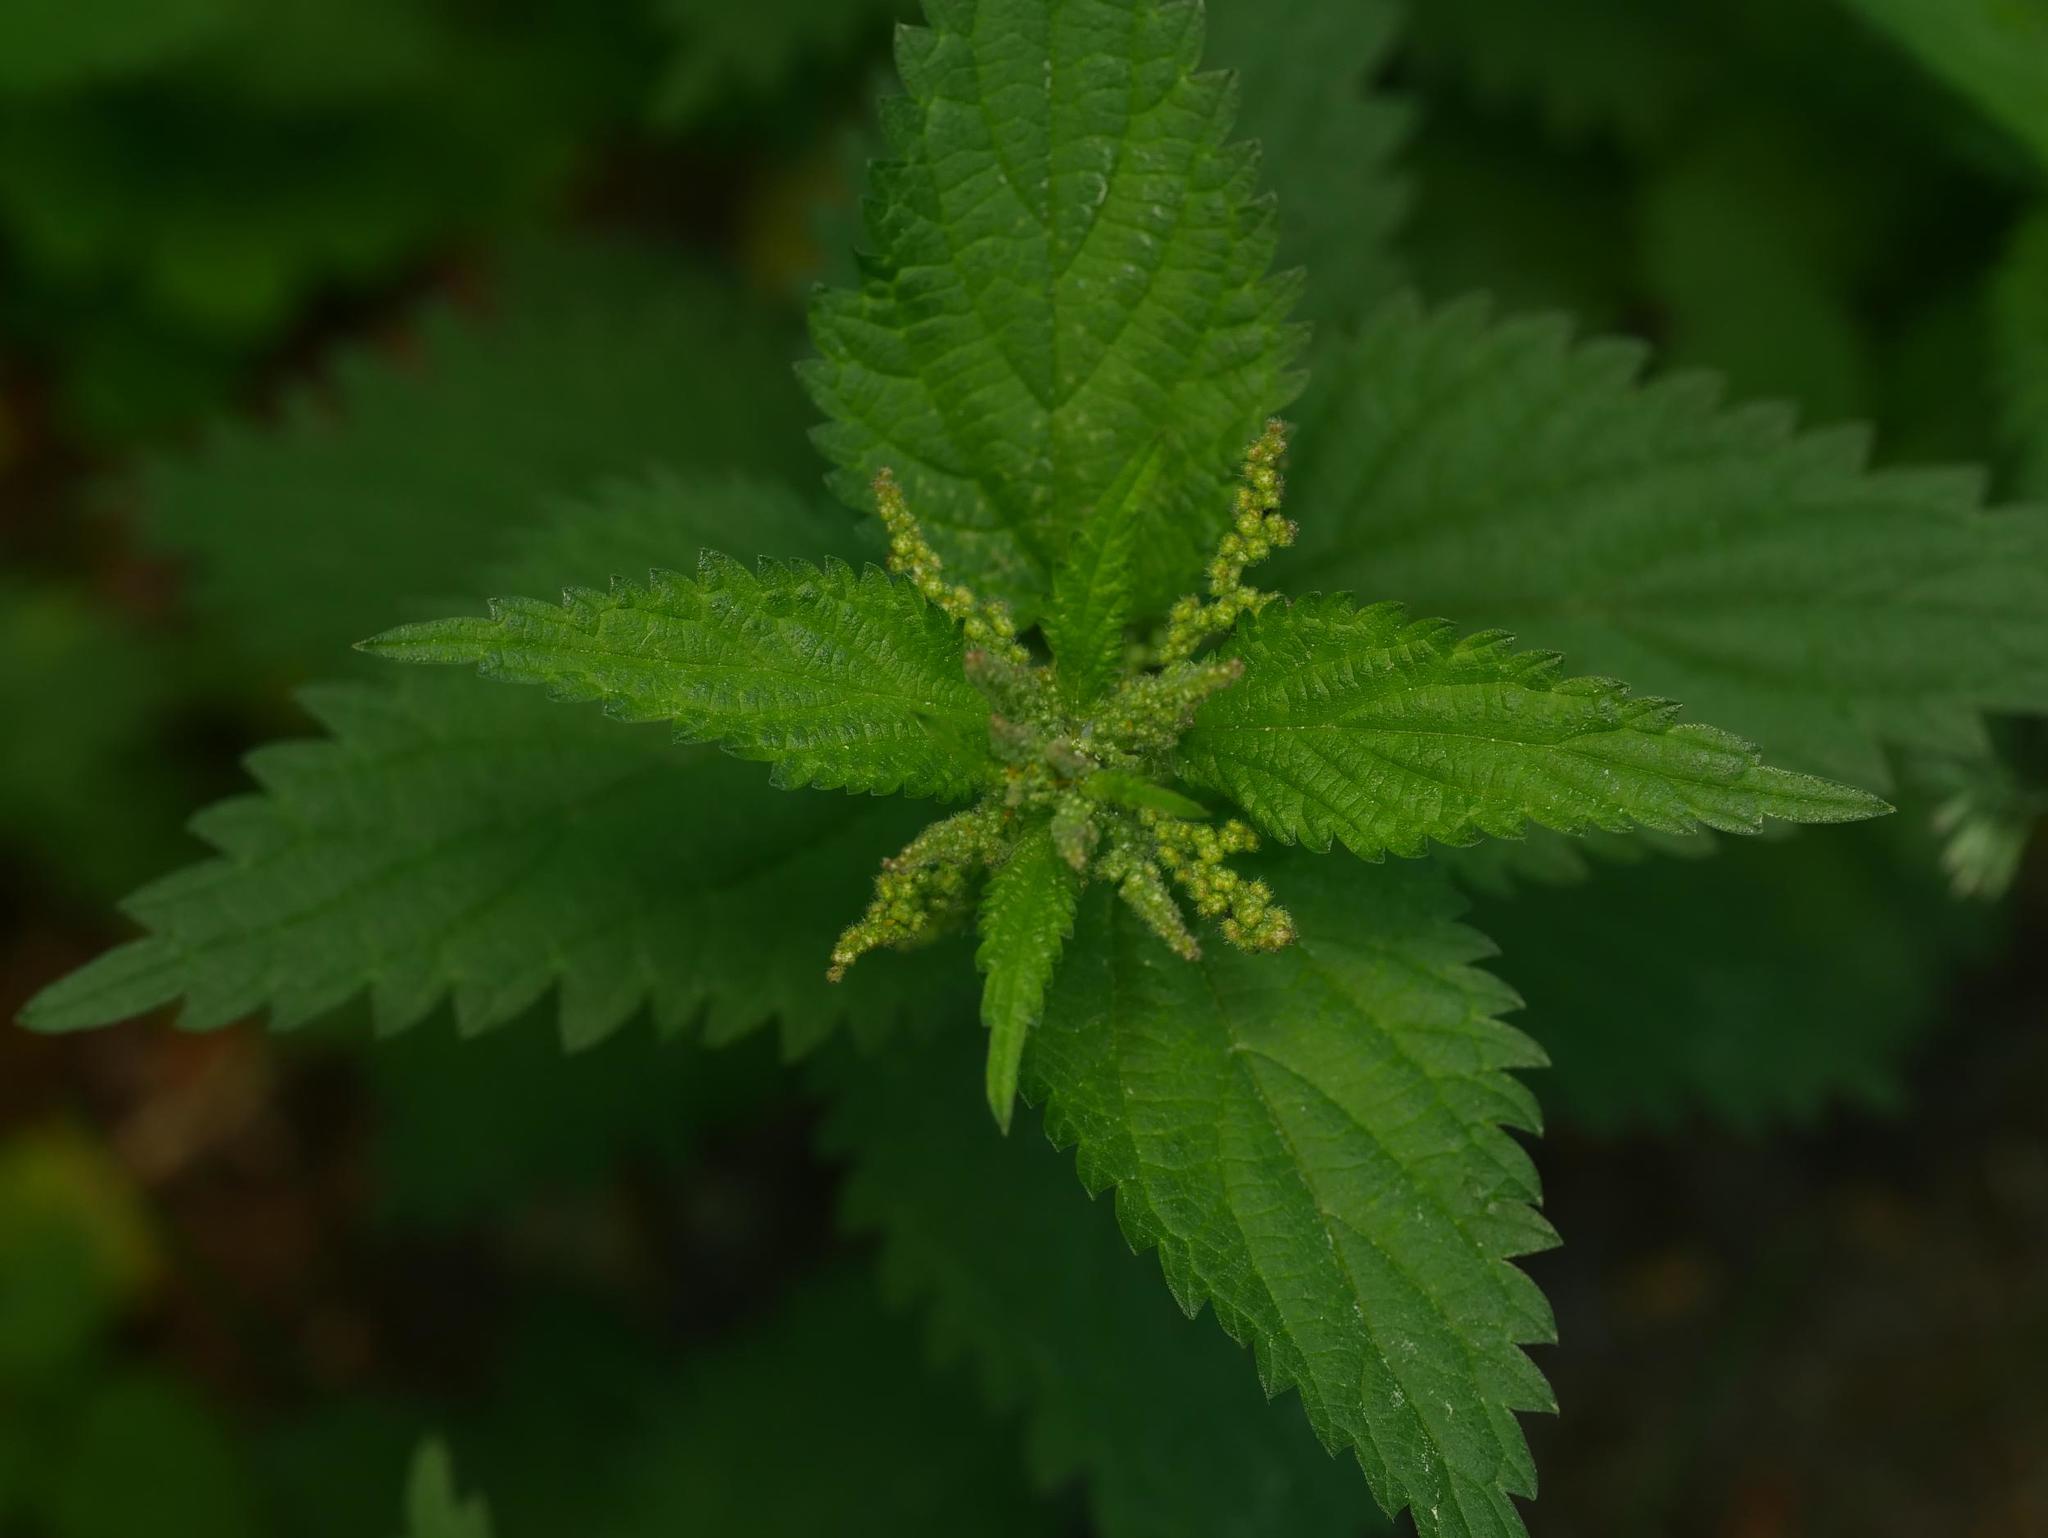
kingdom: Plantae
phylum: Tracheophyta
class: Magnoliopsida
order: Rosales
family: Urticaceae
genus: Urtica
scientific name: Urtica dioica
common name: Common nettle
